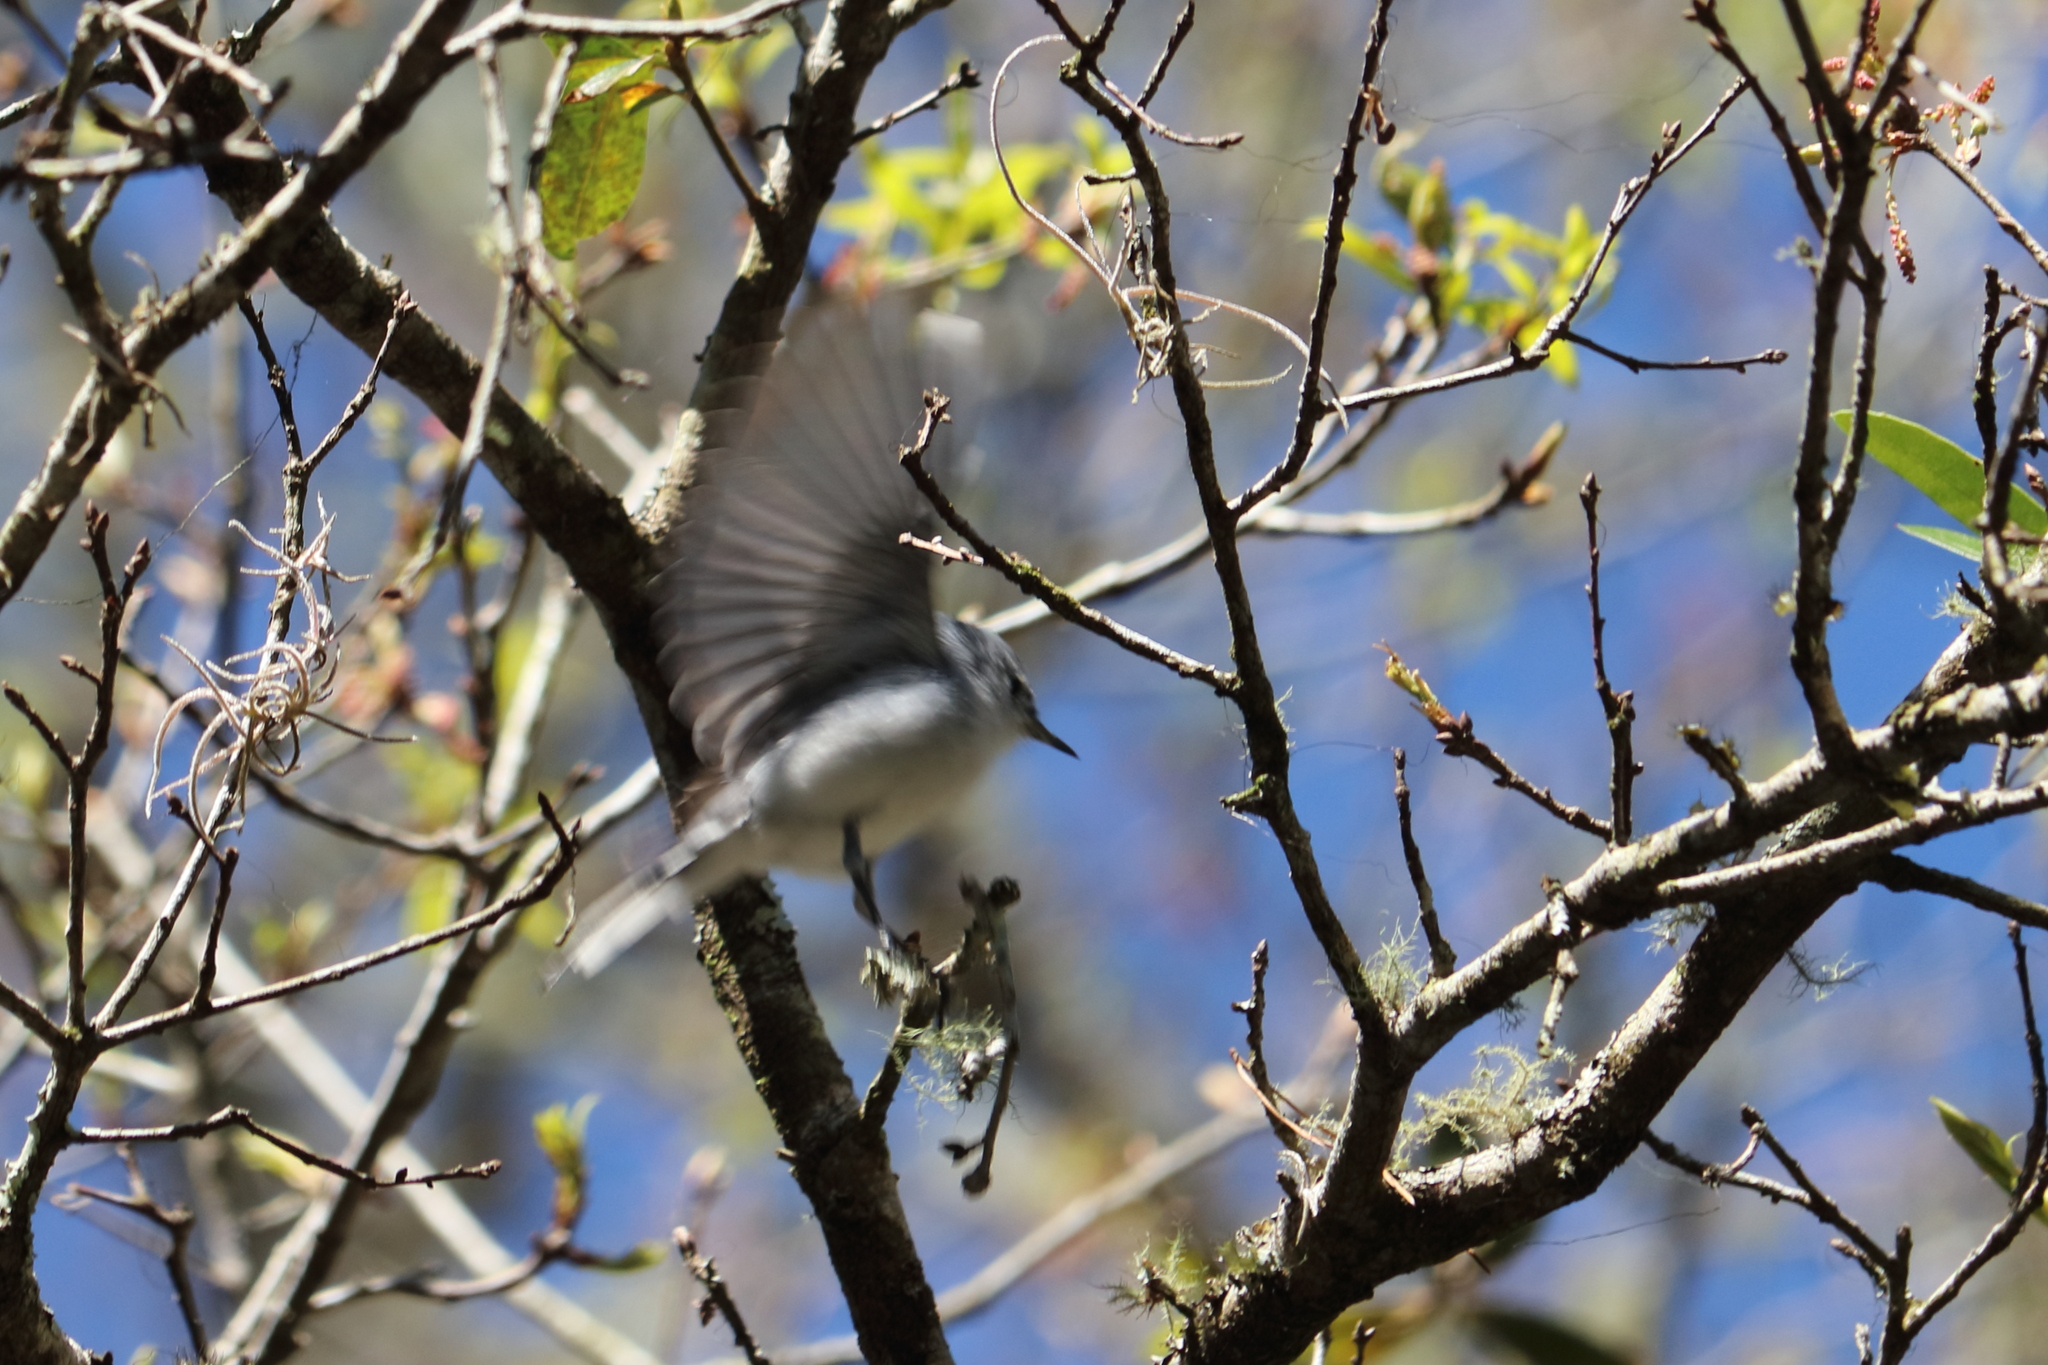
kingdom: Animalia
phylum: Chordata
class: Aves
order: Passeriformes
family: Polioptilidae
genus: Polioptila
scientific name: Polioptila caerulea
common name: Blue-gray gnatcatcher
